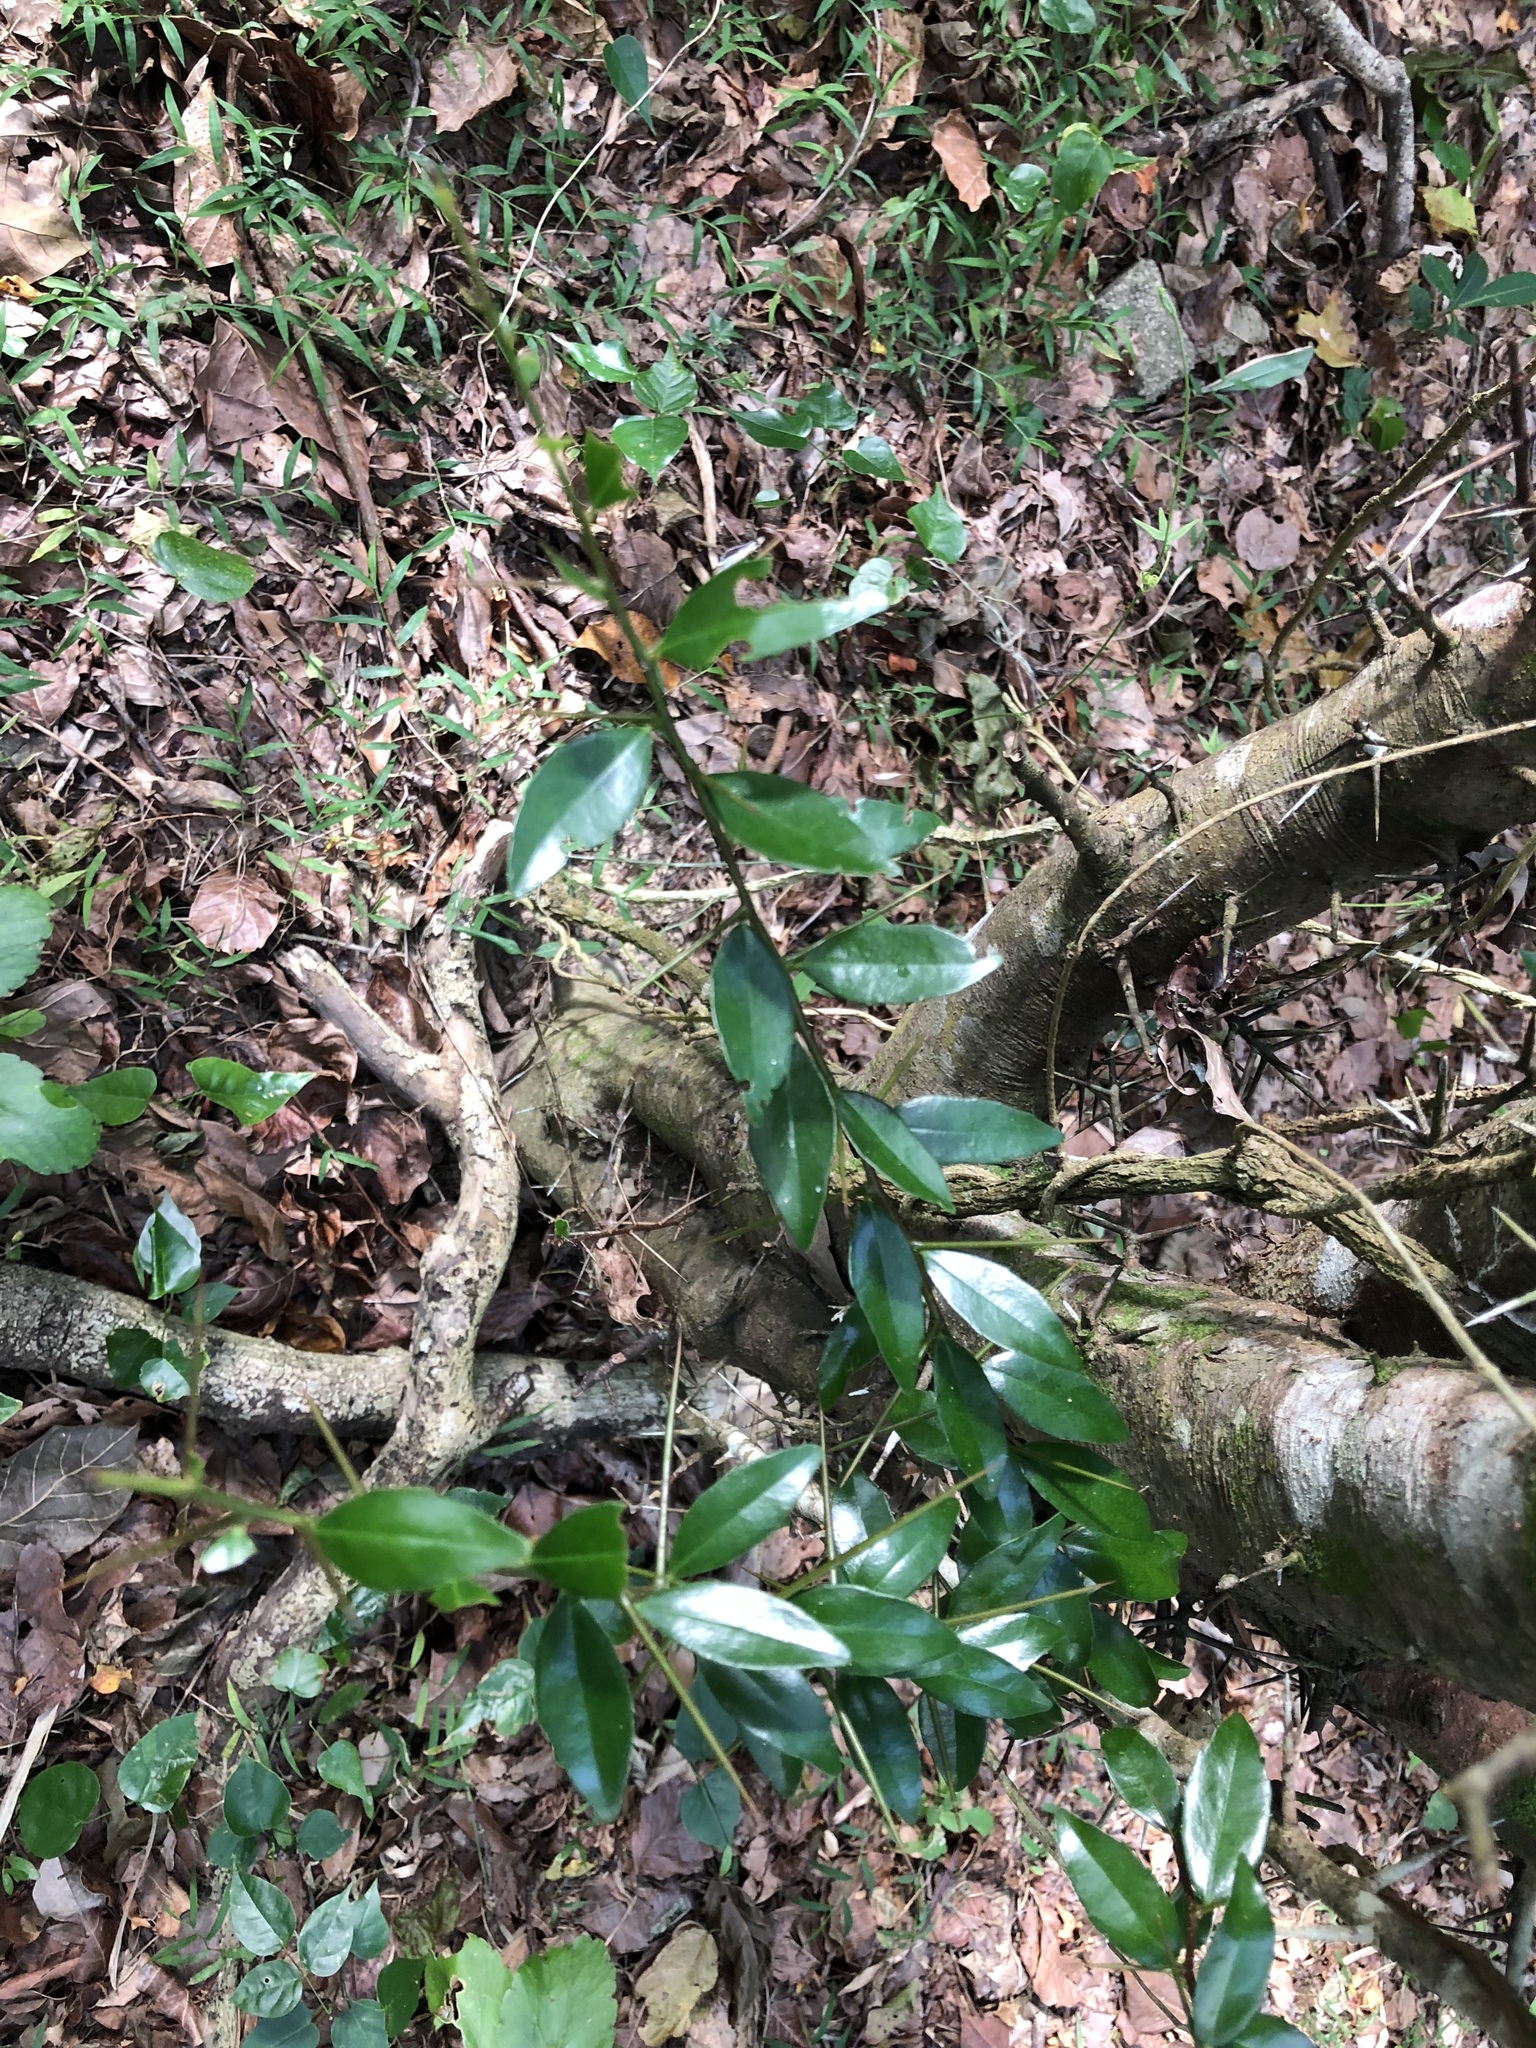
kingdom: Plantae
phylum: Tracheophyta
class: Magnoliopsida
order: Malpighiales
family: Salicaceae
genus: Scolopia
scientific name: Scolopia oldhamii
